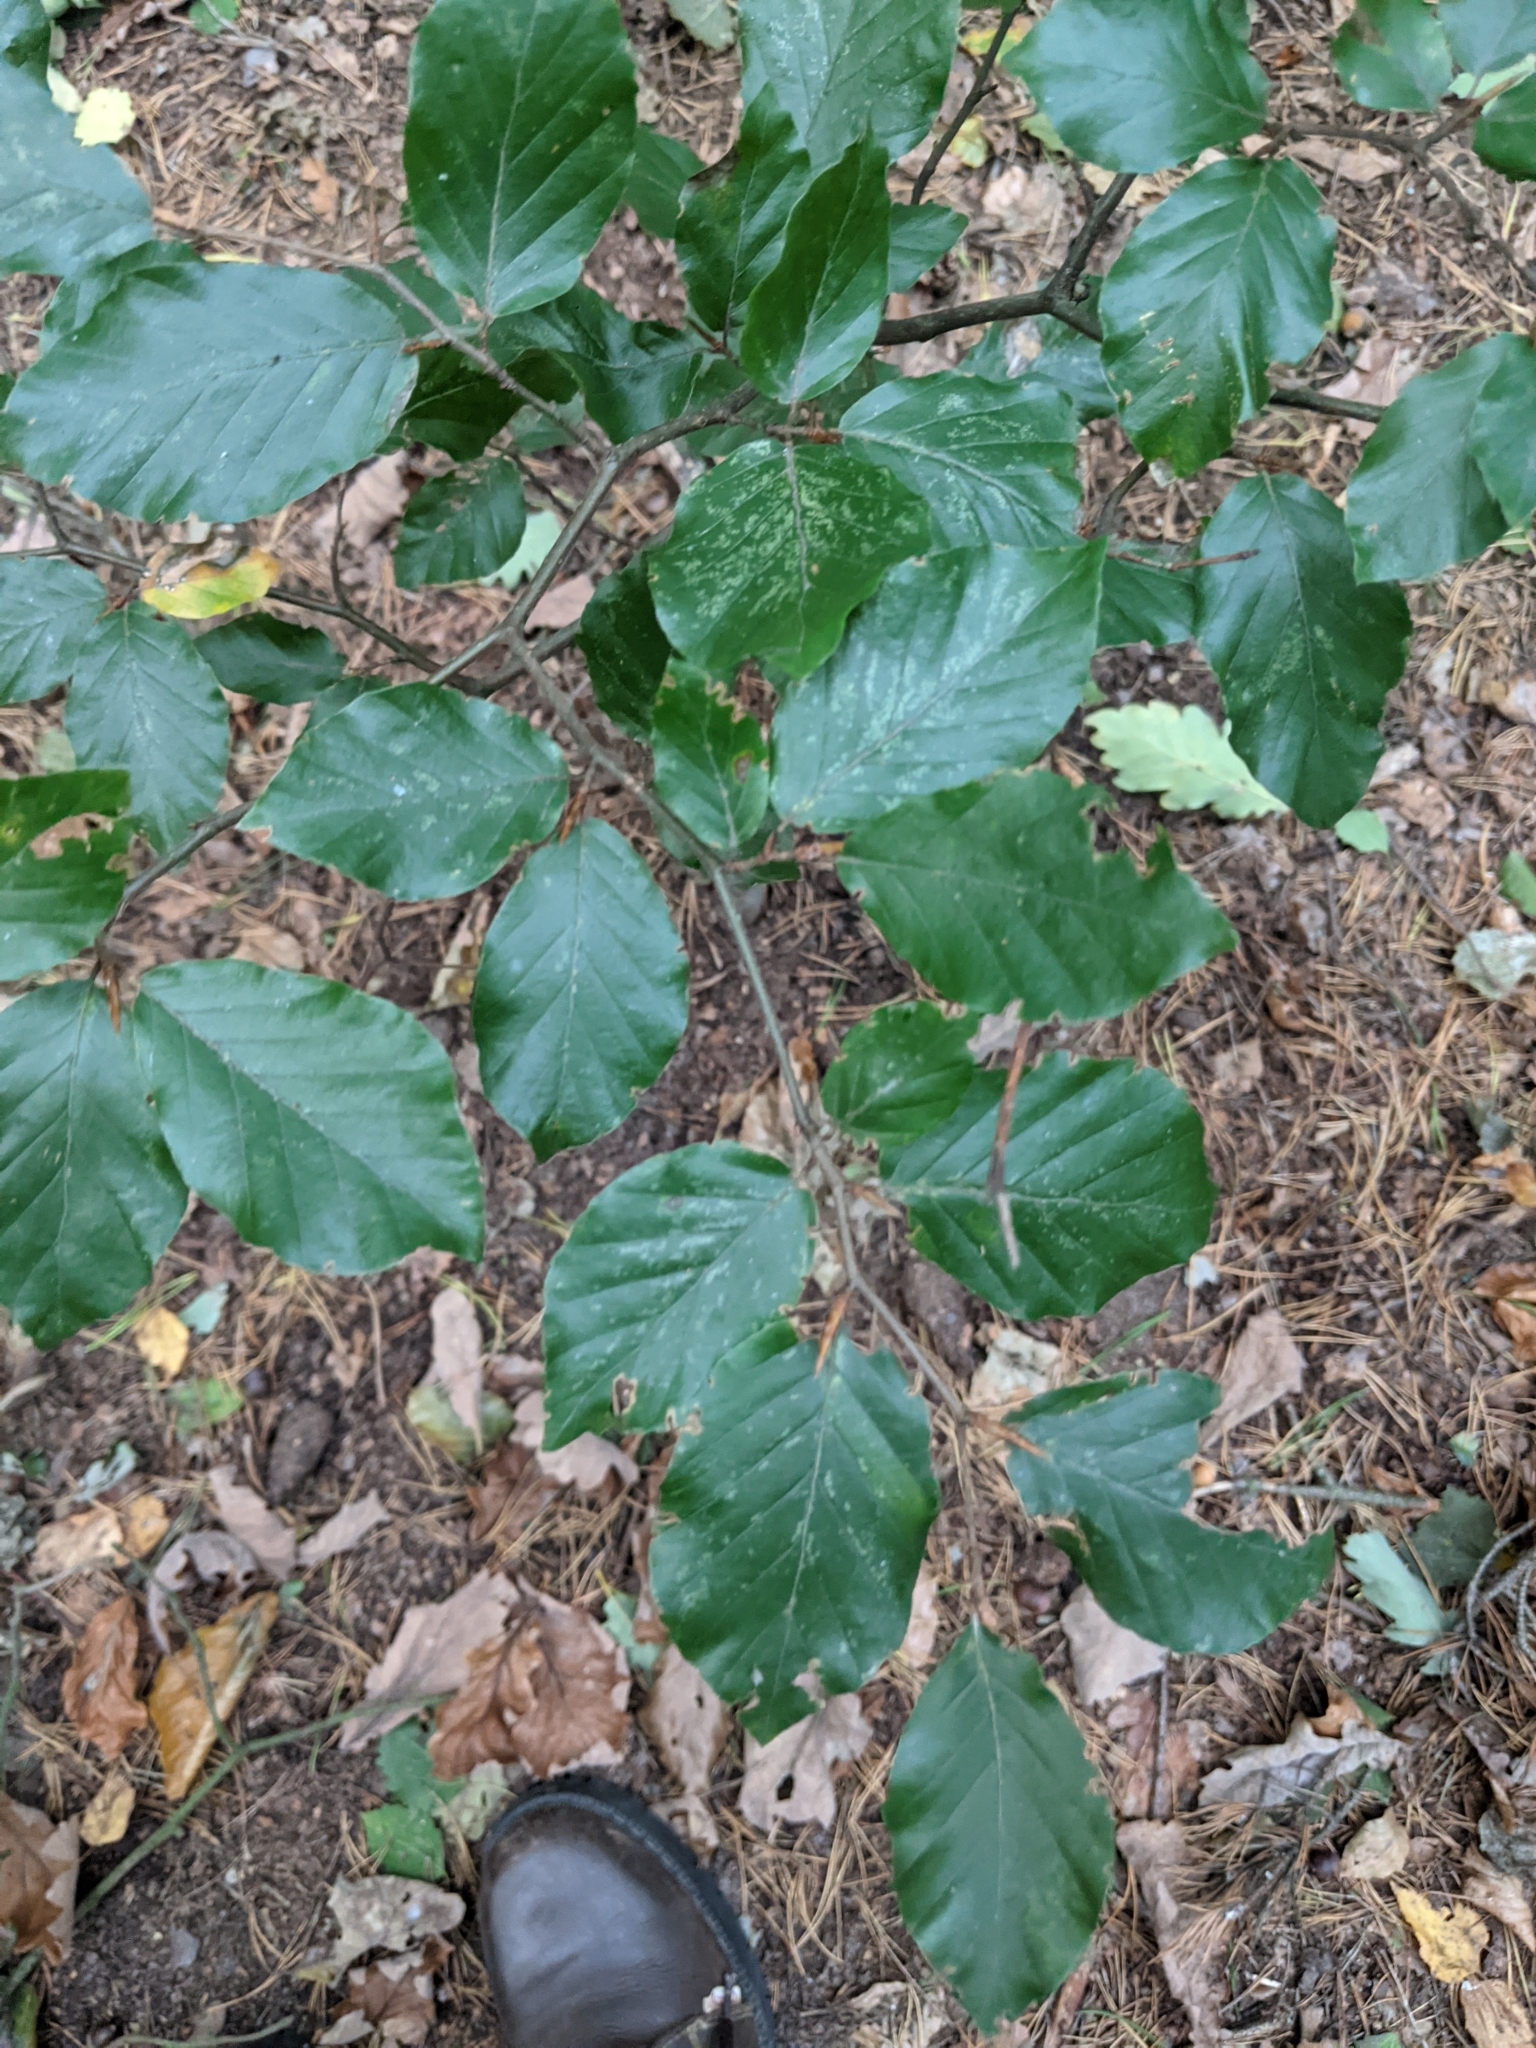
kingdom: Plantae
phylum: Tracheophyta
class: Magnoliopsida
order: Fagales
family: Fagaceae
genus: Fagus
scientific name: Fagus sylvatica
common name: Beech
